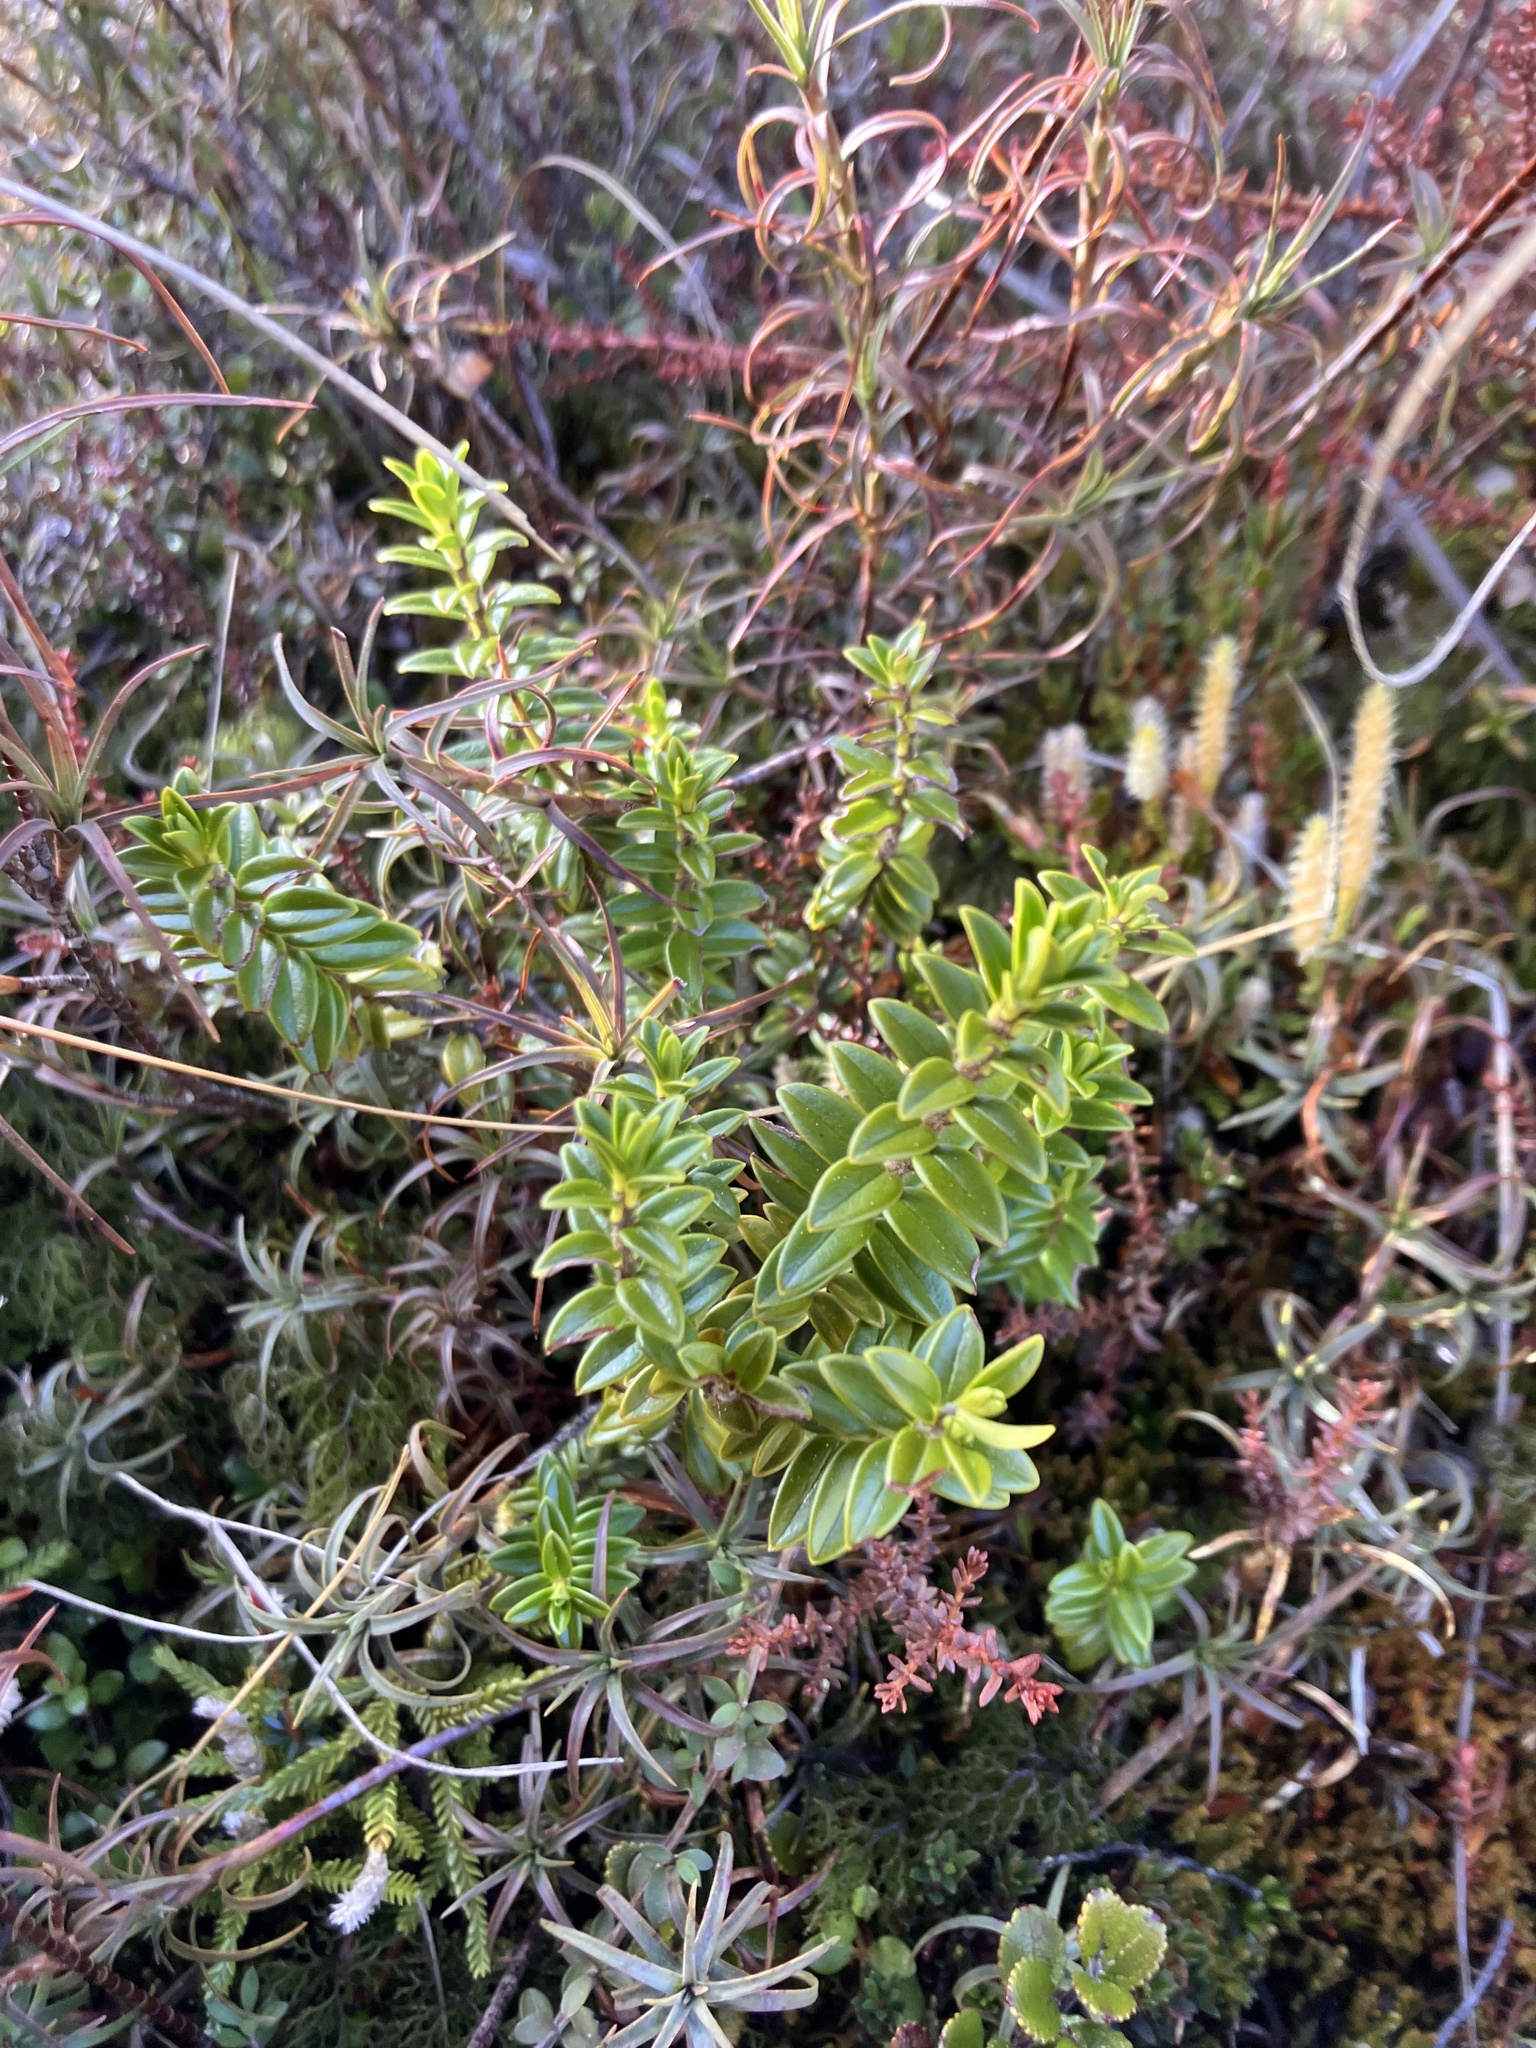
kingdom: Plantae
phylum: Tracheophyta
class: Magnoliopsida
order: Lamiales
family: Plantaginaceae
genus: Veronica
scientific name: Veronica odora
